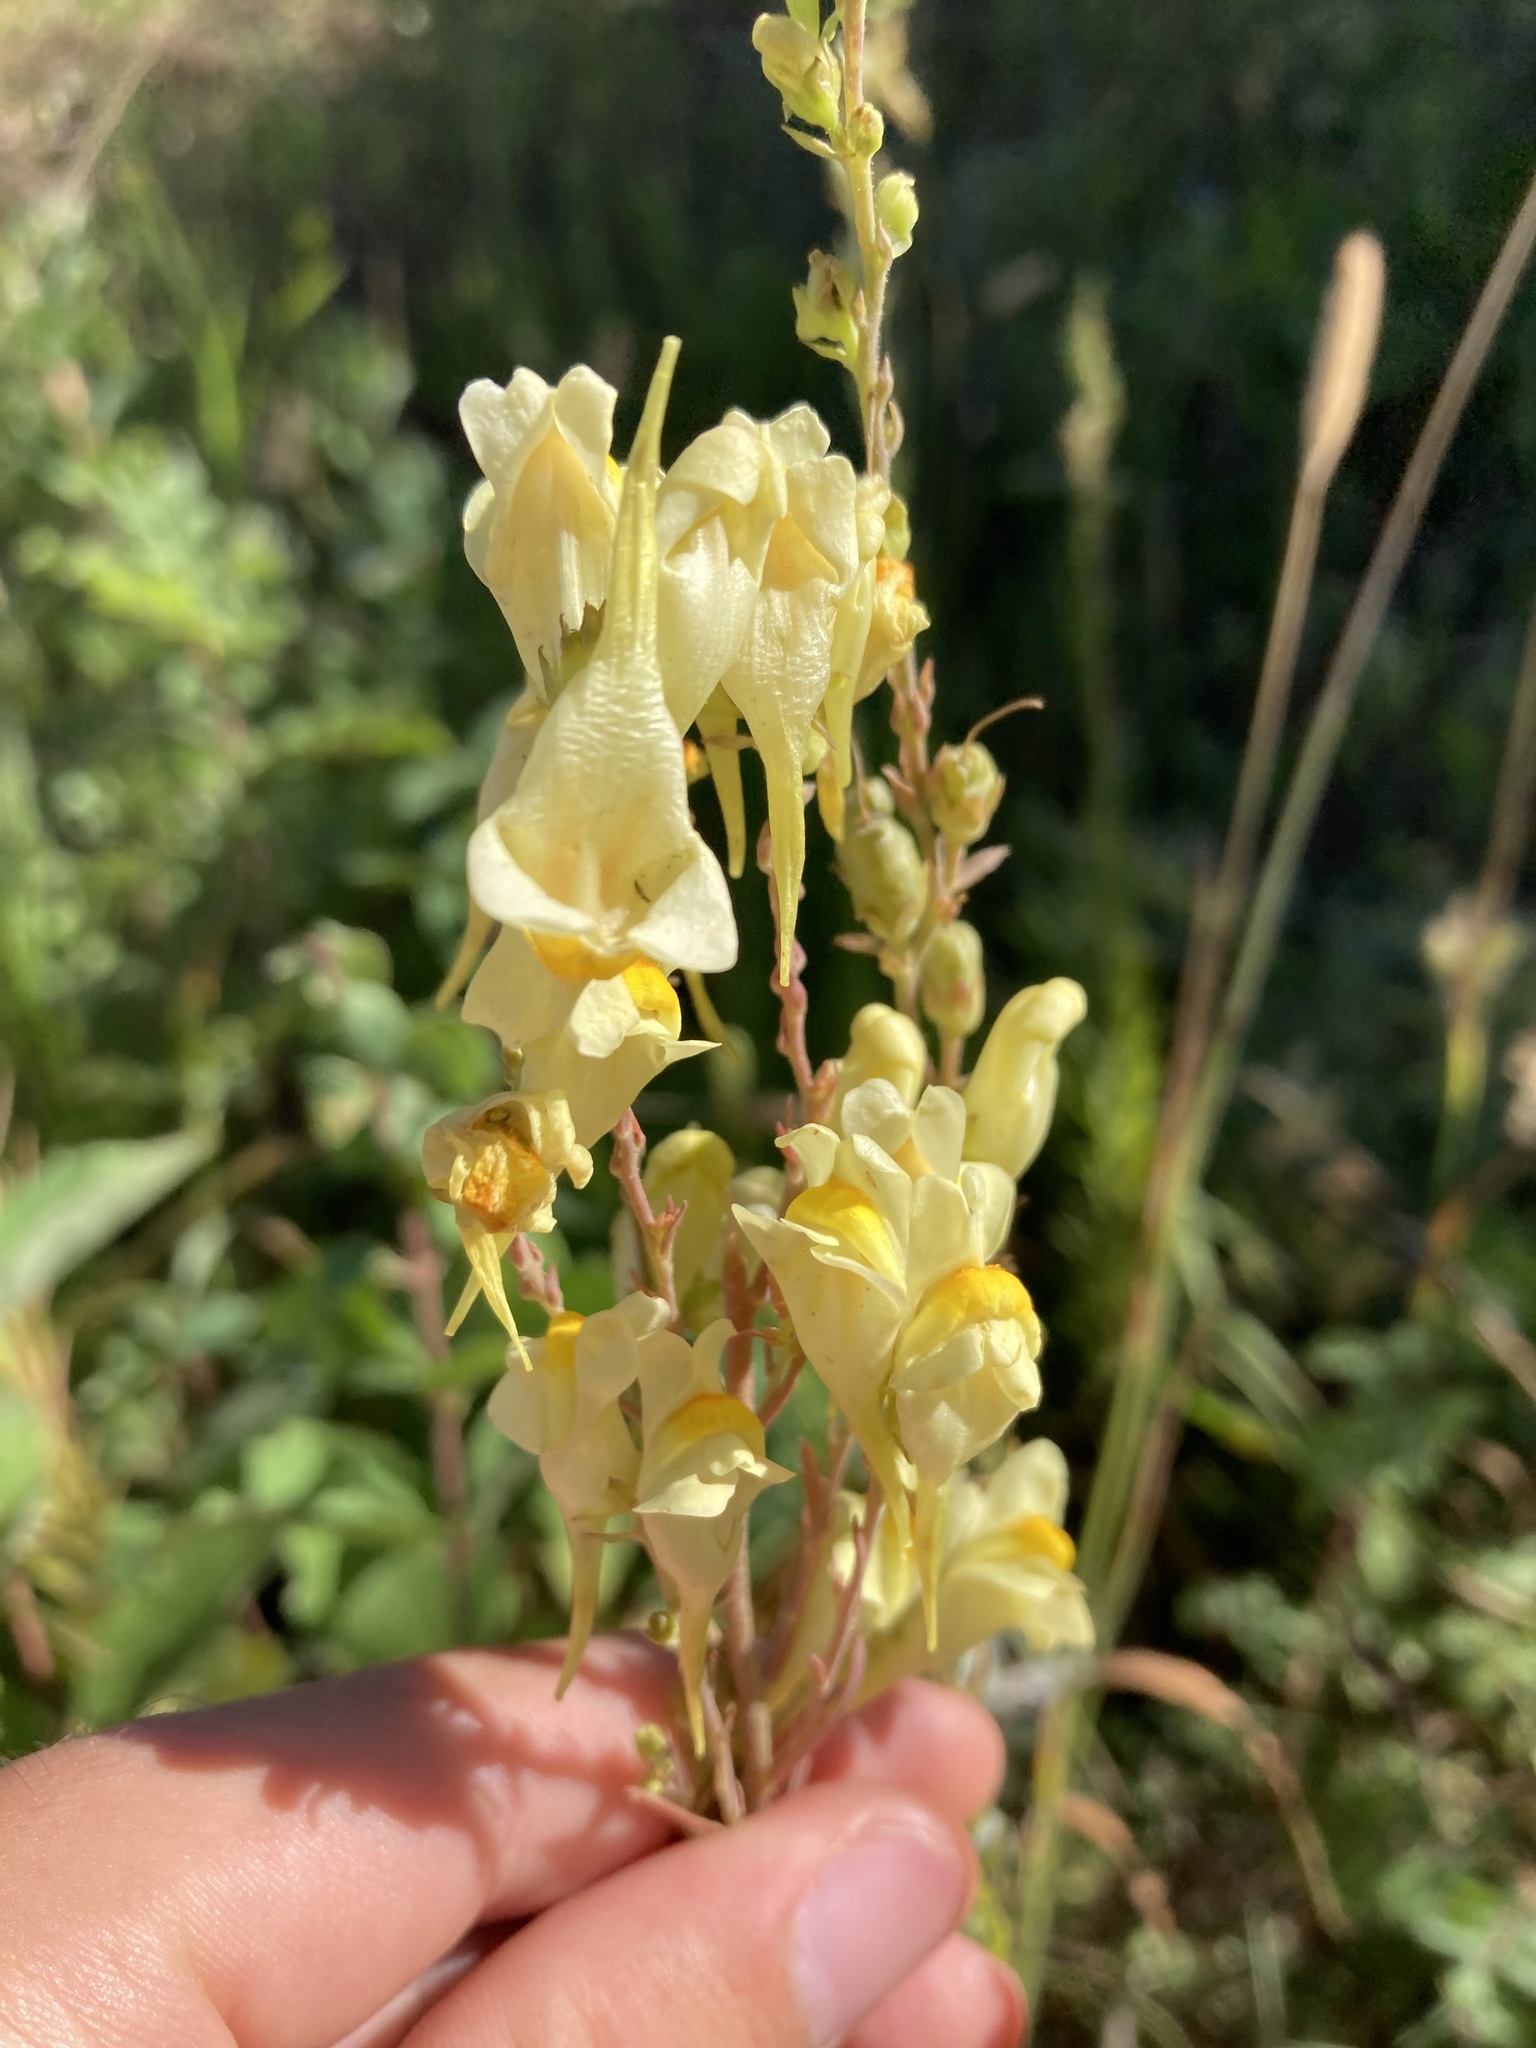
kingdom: Plantae
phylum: Tracheophyta
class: Magnoliopsida
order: Lamiales
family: Plantaginaceae
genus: Linaria
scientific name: Linaria vulgaris
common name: Butter and eggs
